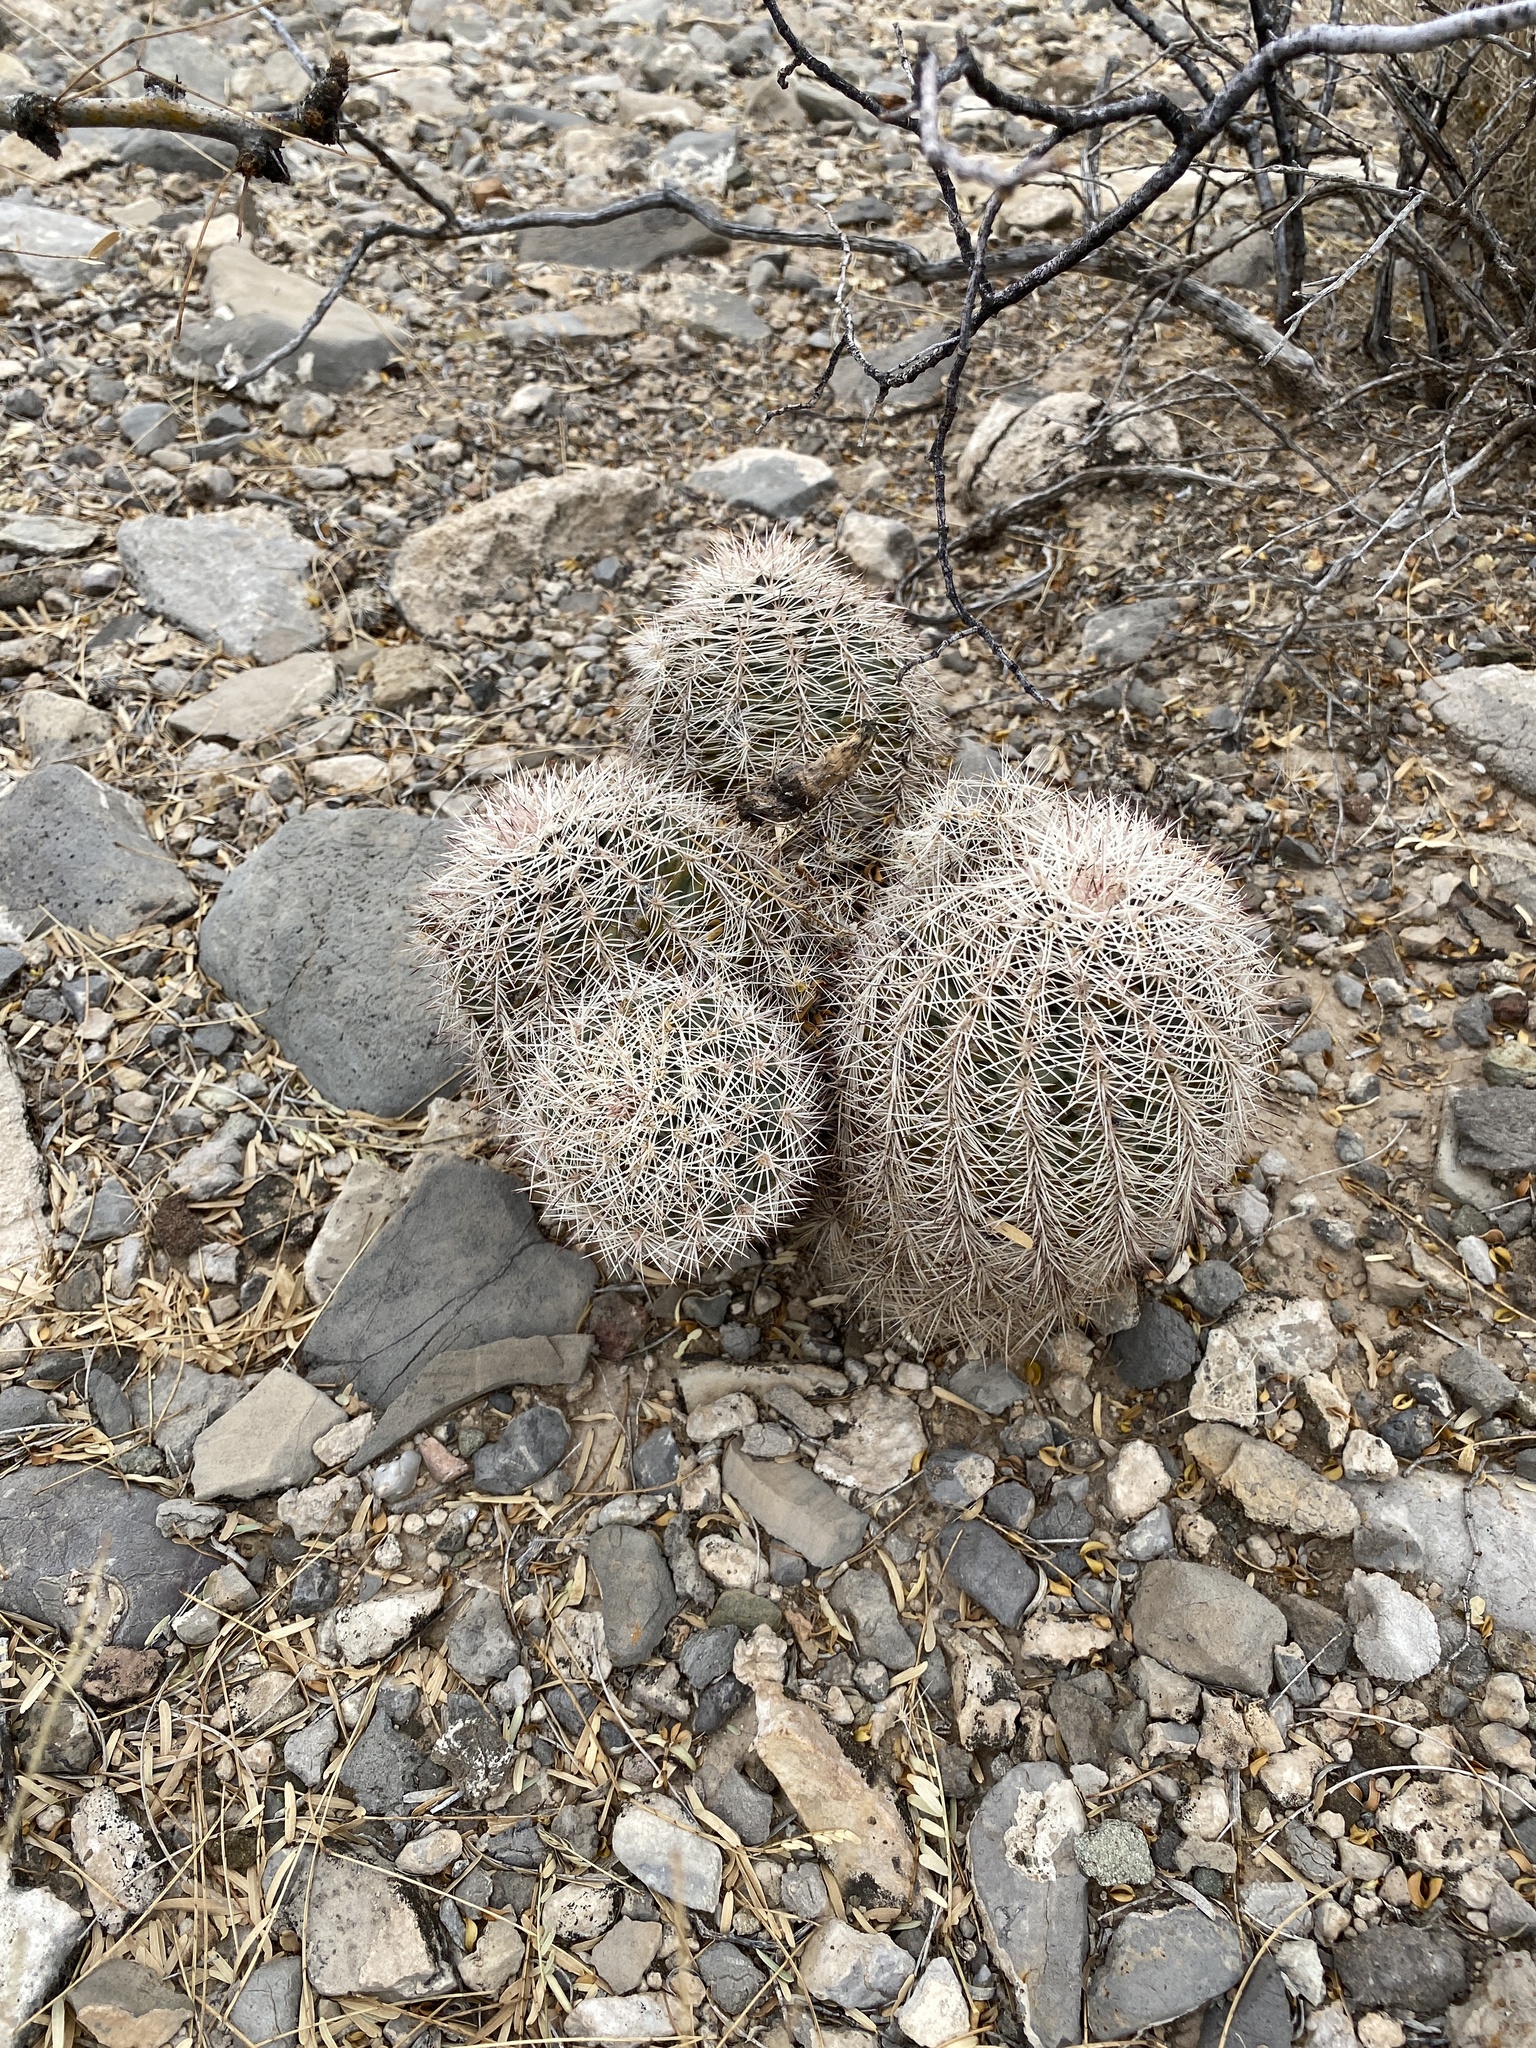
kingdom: Plantae
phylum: Tracheophyta
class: Magnoliopsida
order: Caryophyllales
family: Cactaceae
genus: Echinocereus
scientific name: Echinocereus dasyacanthus
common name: Spiny hedgehog cactus
